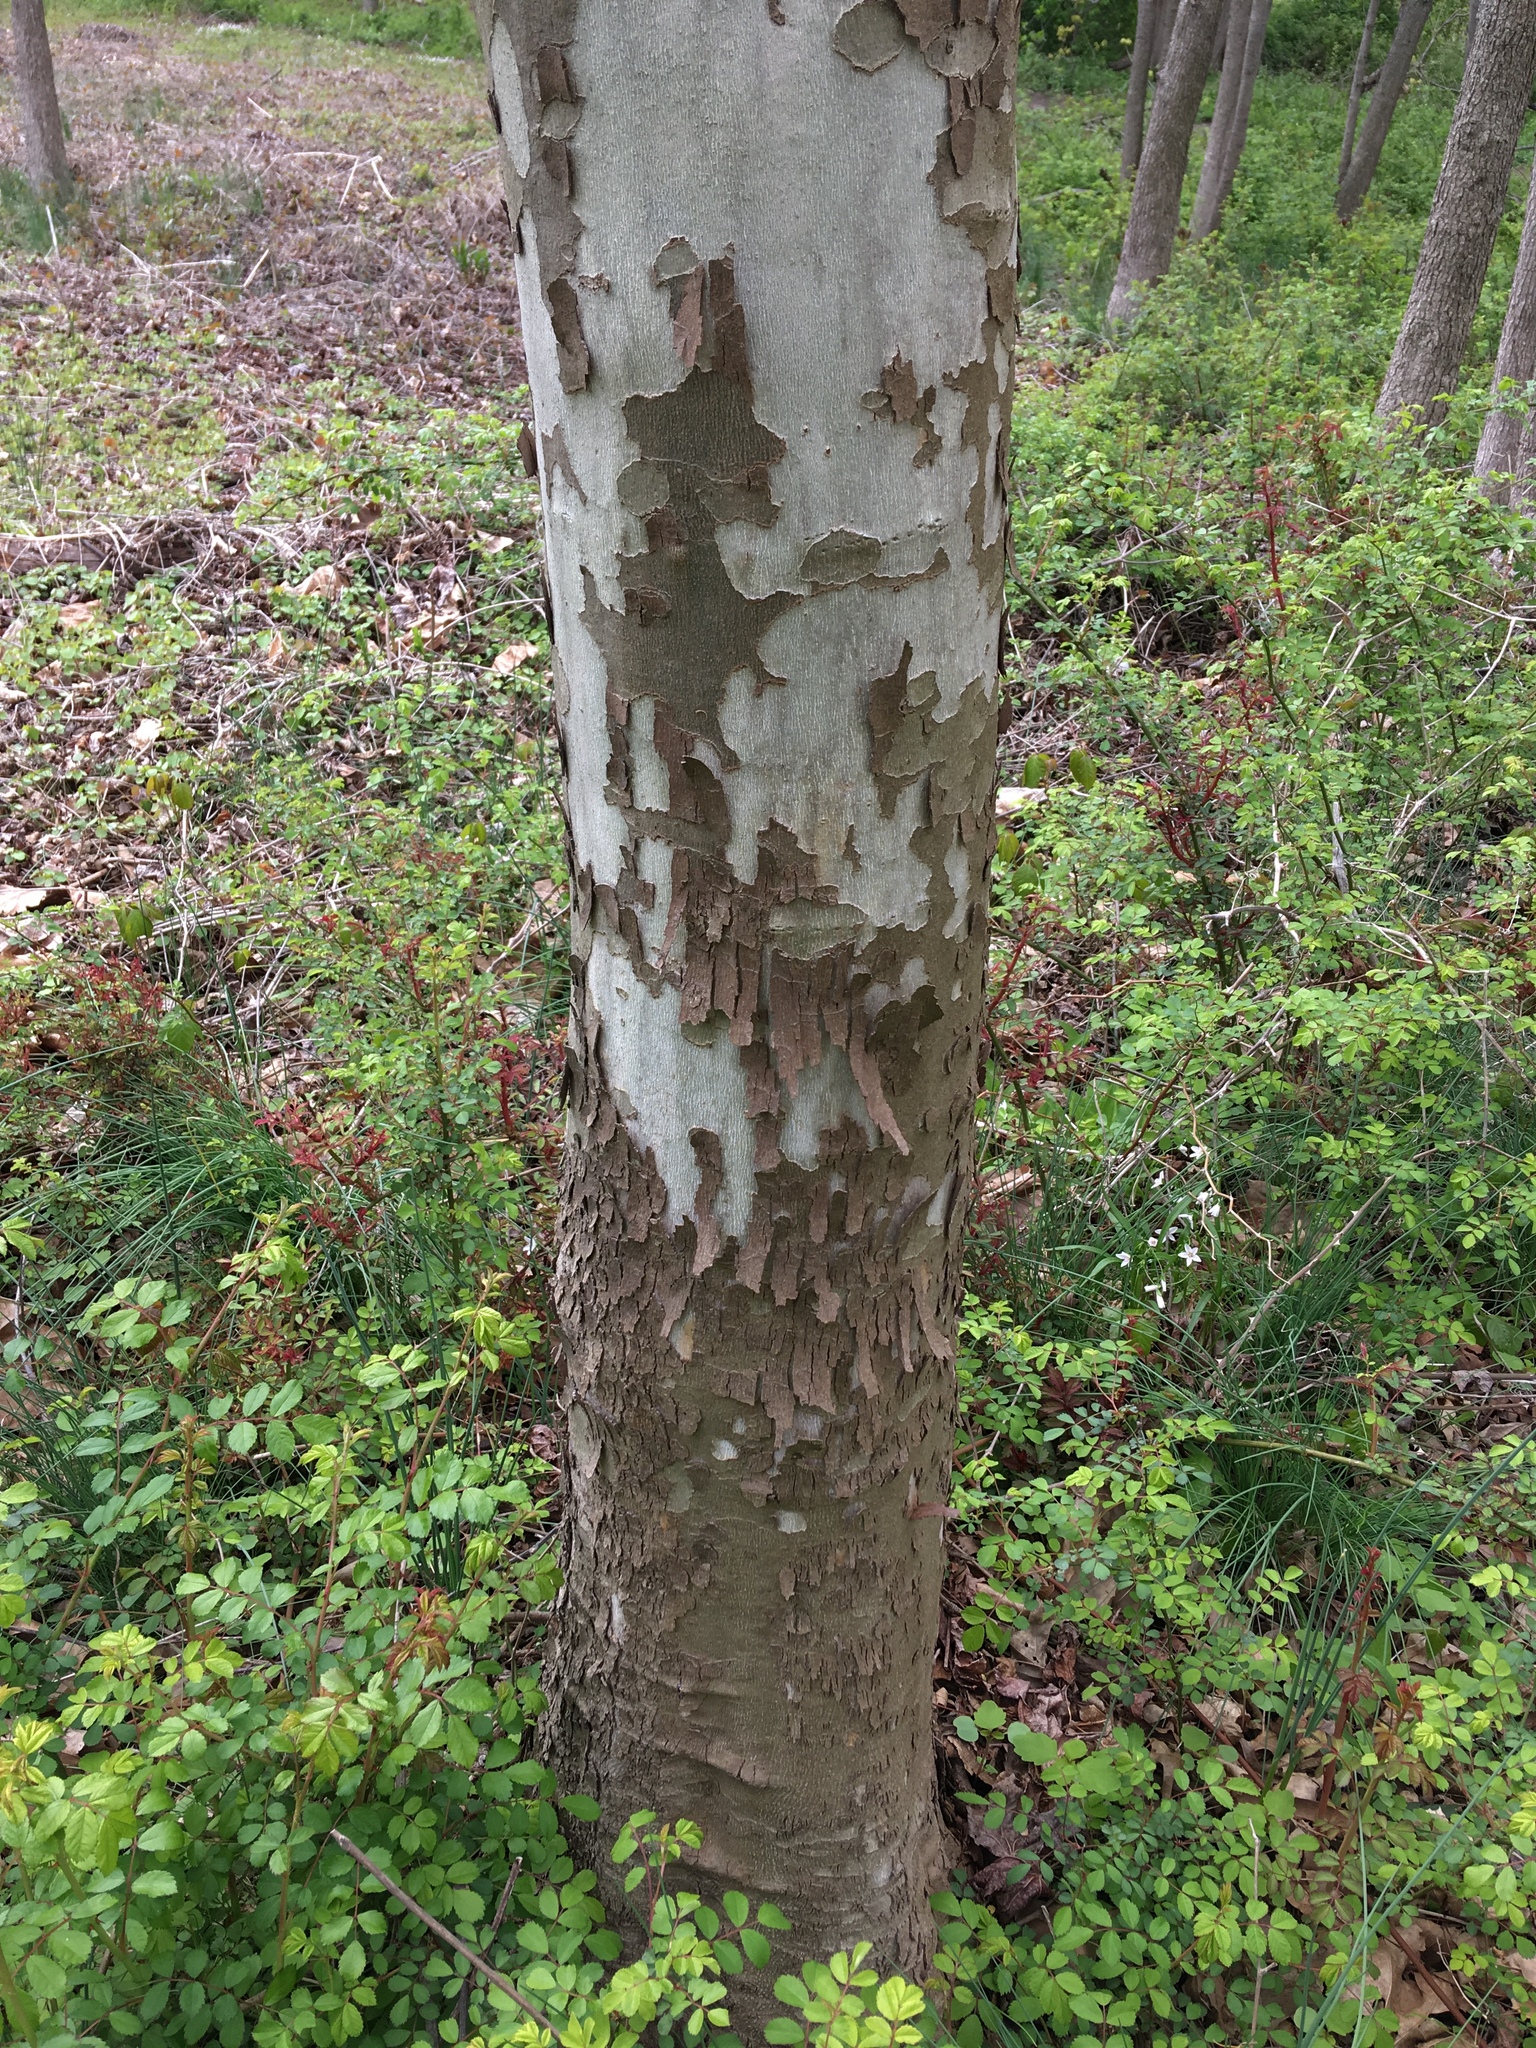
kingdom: Plantae
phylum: Tracheophyta
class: Magnoliopsida
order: Proteales
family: Platanaceae
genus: Platanus
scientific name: Platanus occidentalis
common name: American sycamore
